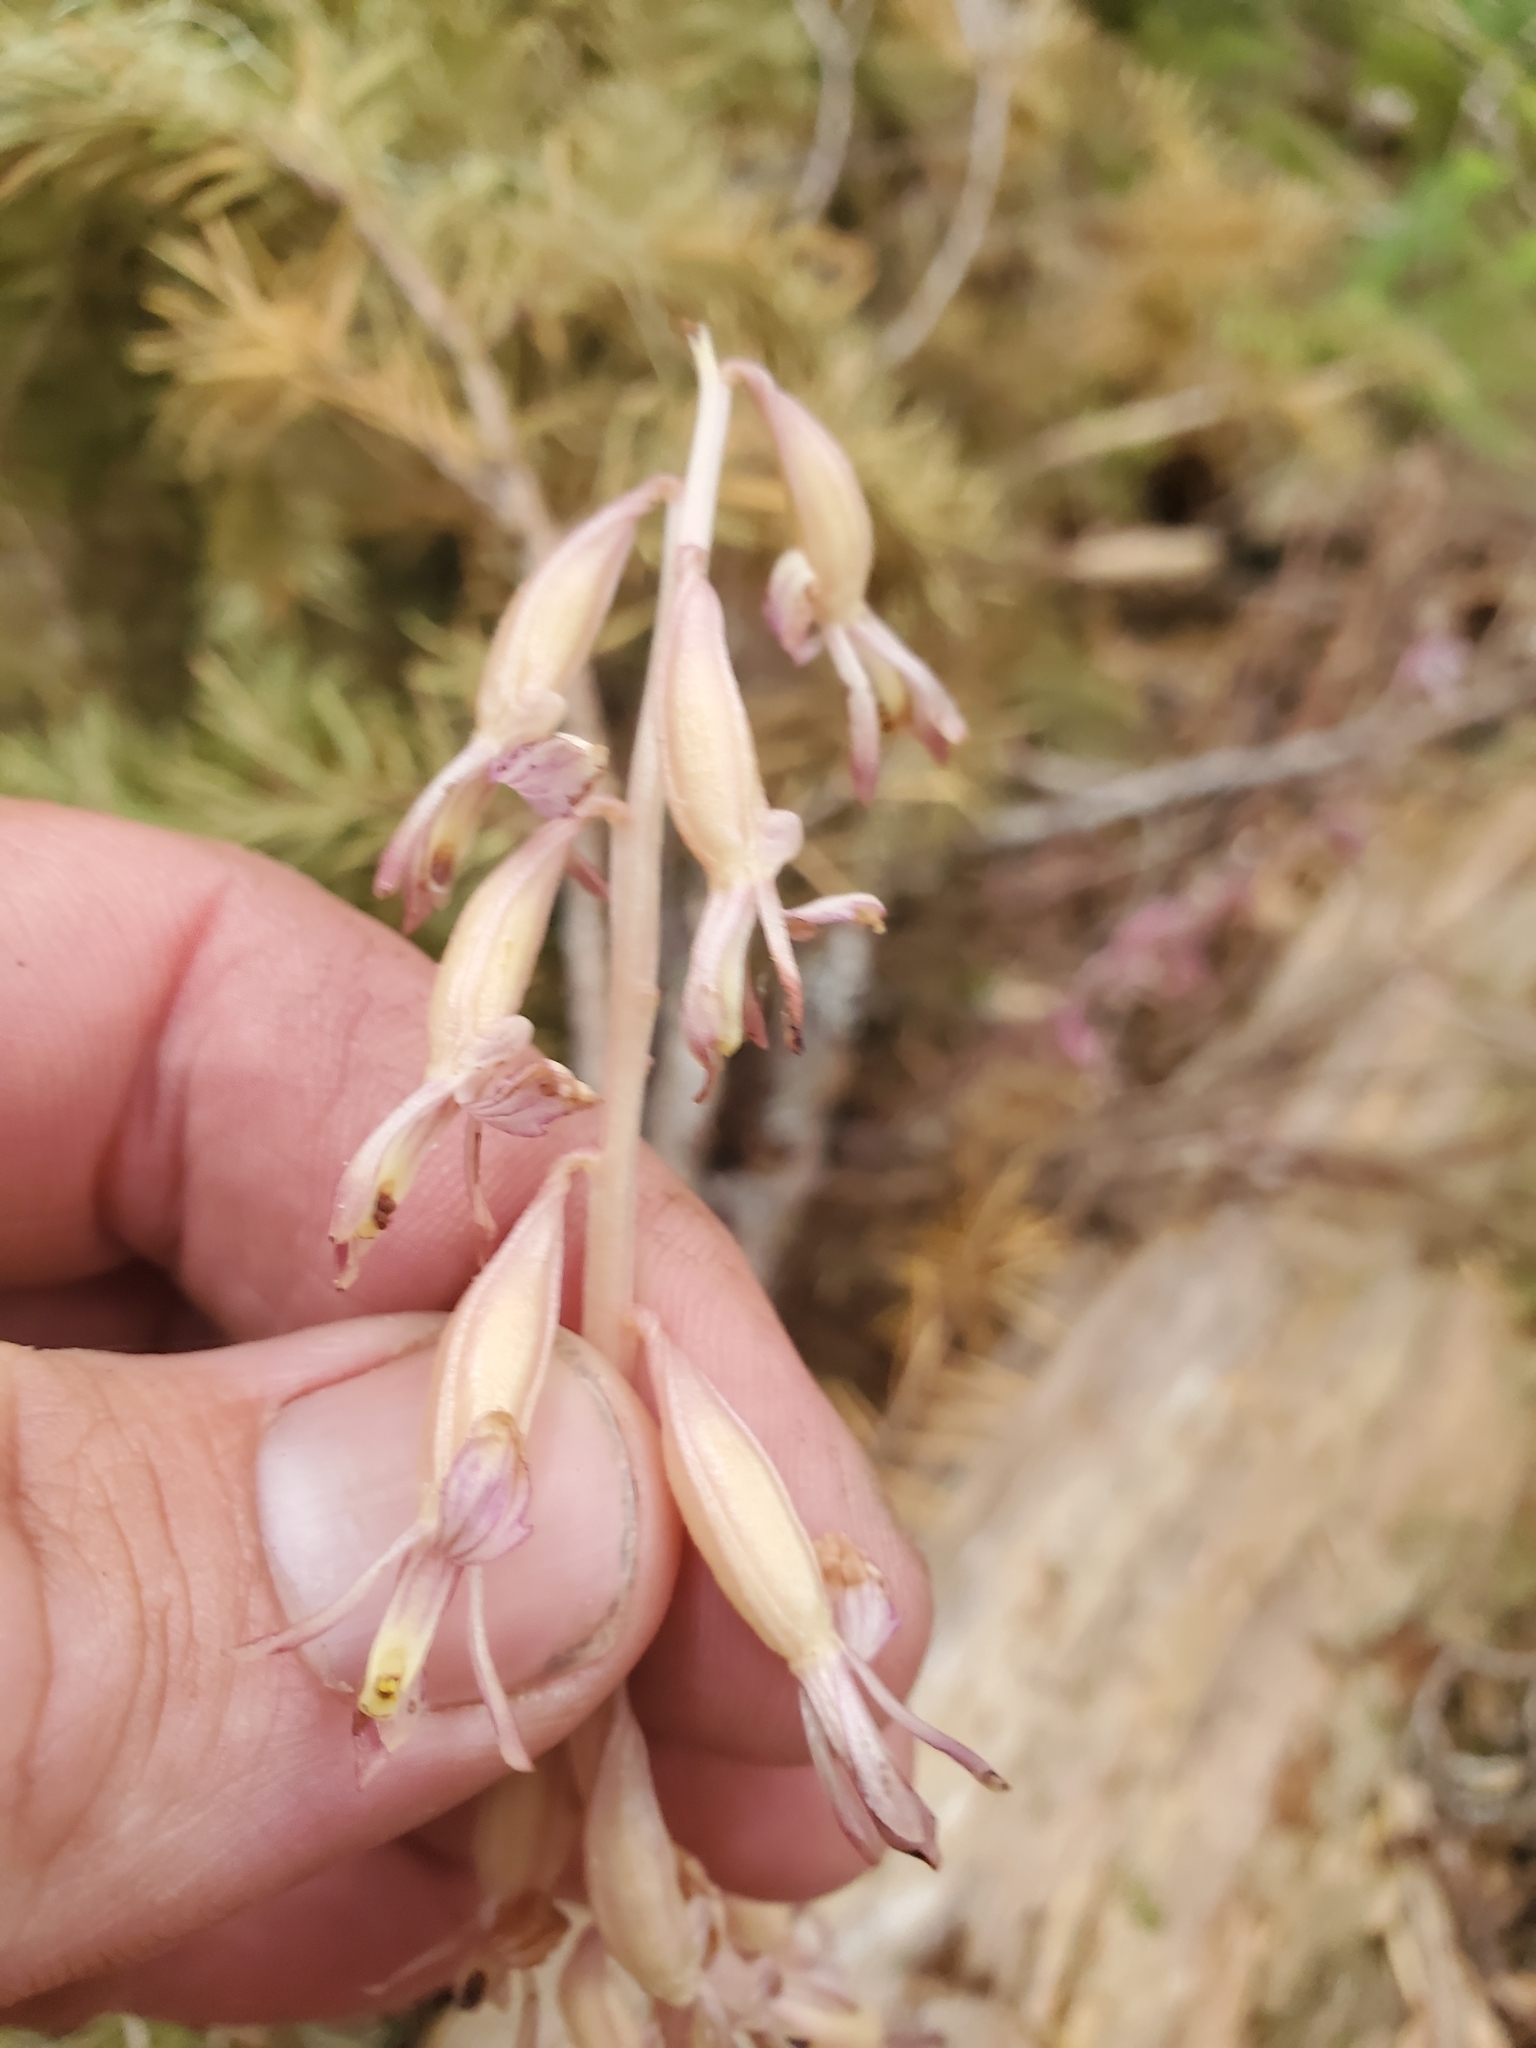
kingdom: Plantae
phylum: Tracheophyta
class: Liliopsida
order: Asparagales
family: Orchidaceae
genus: Corallorhiza
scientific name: Corallorhiza mertensiana
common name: Pacific coralroot
